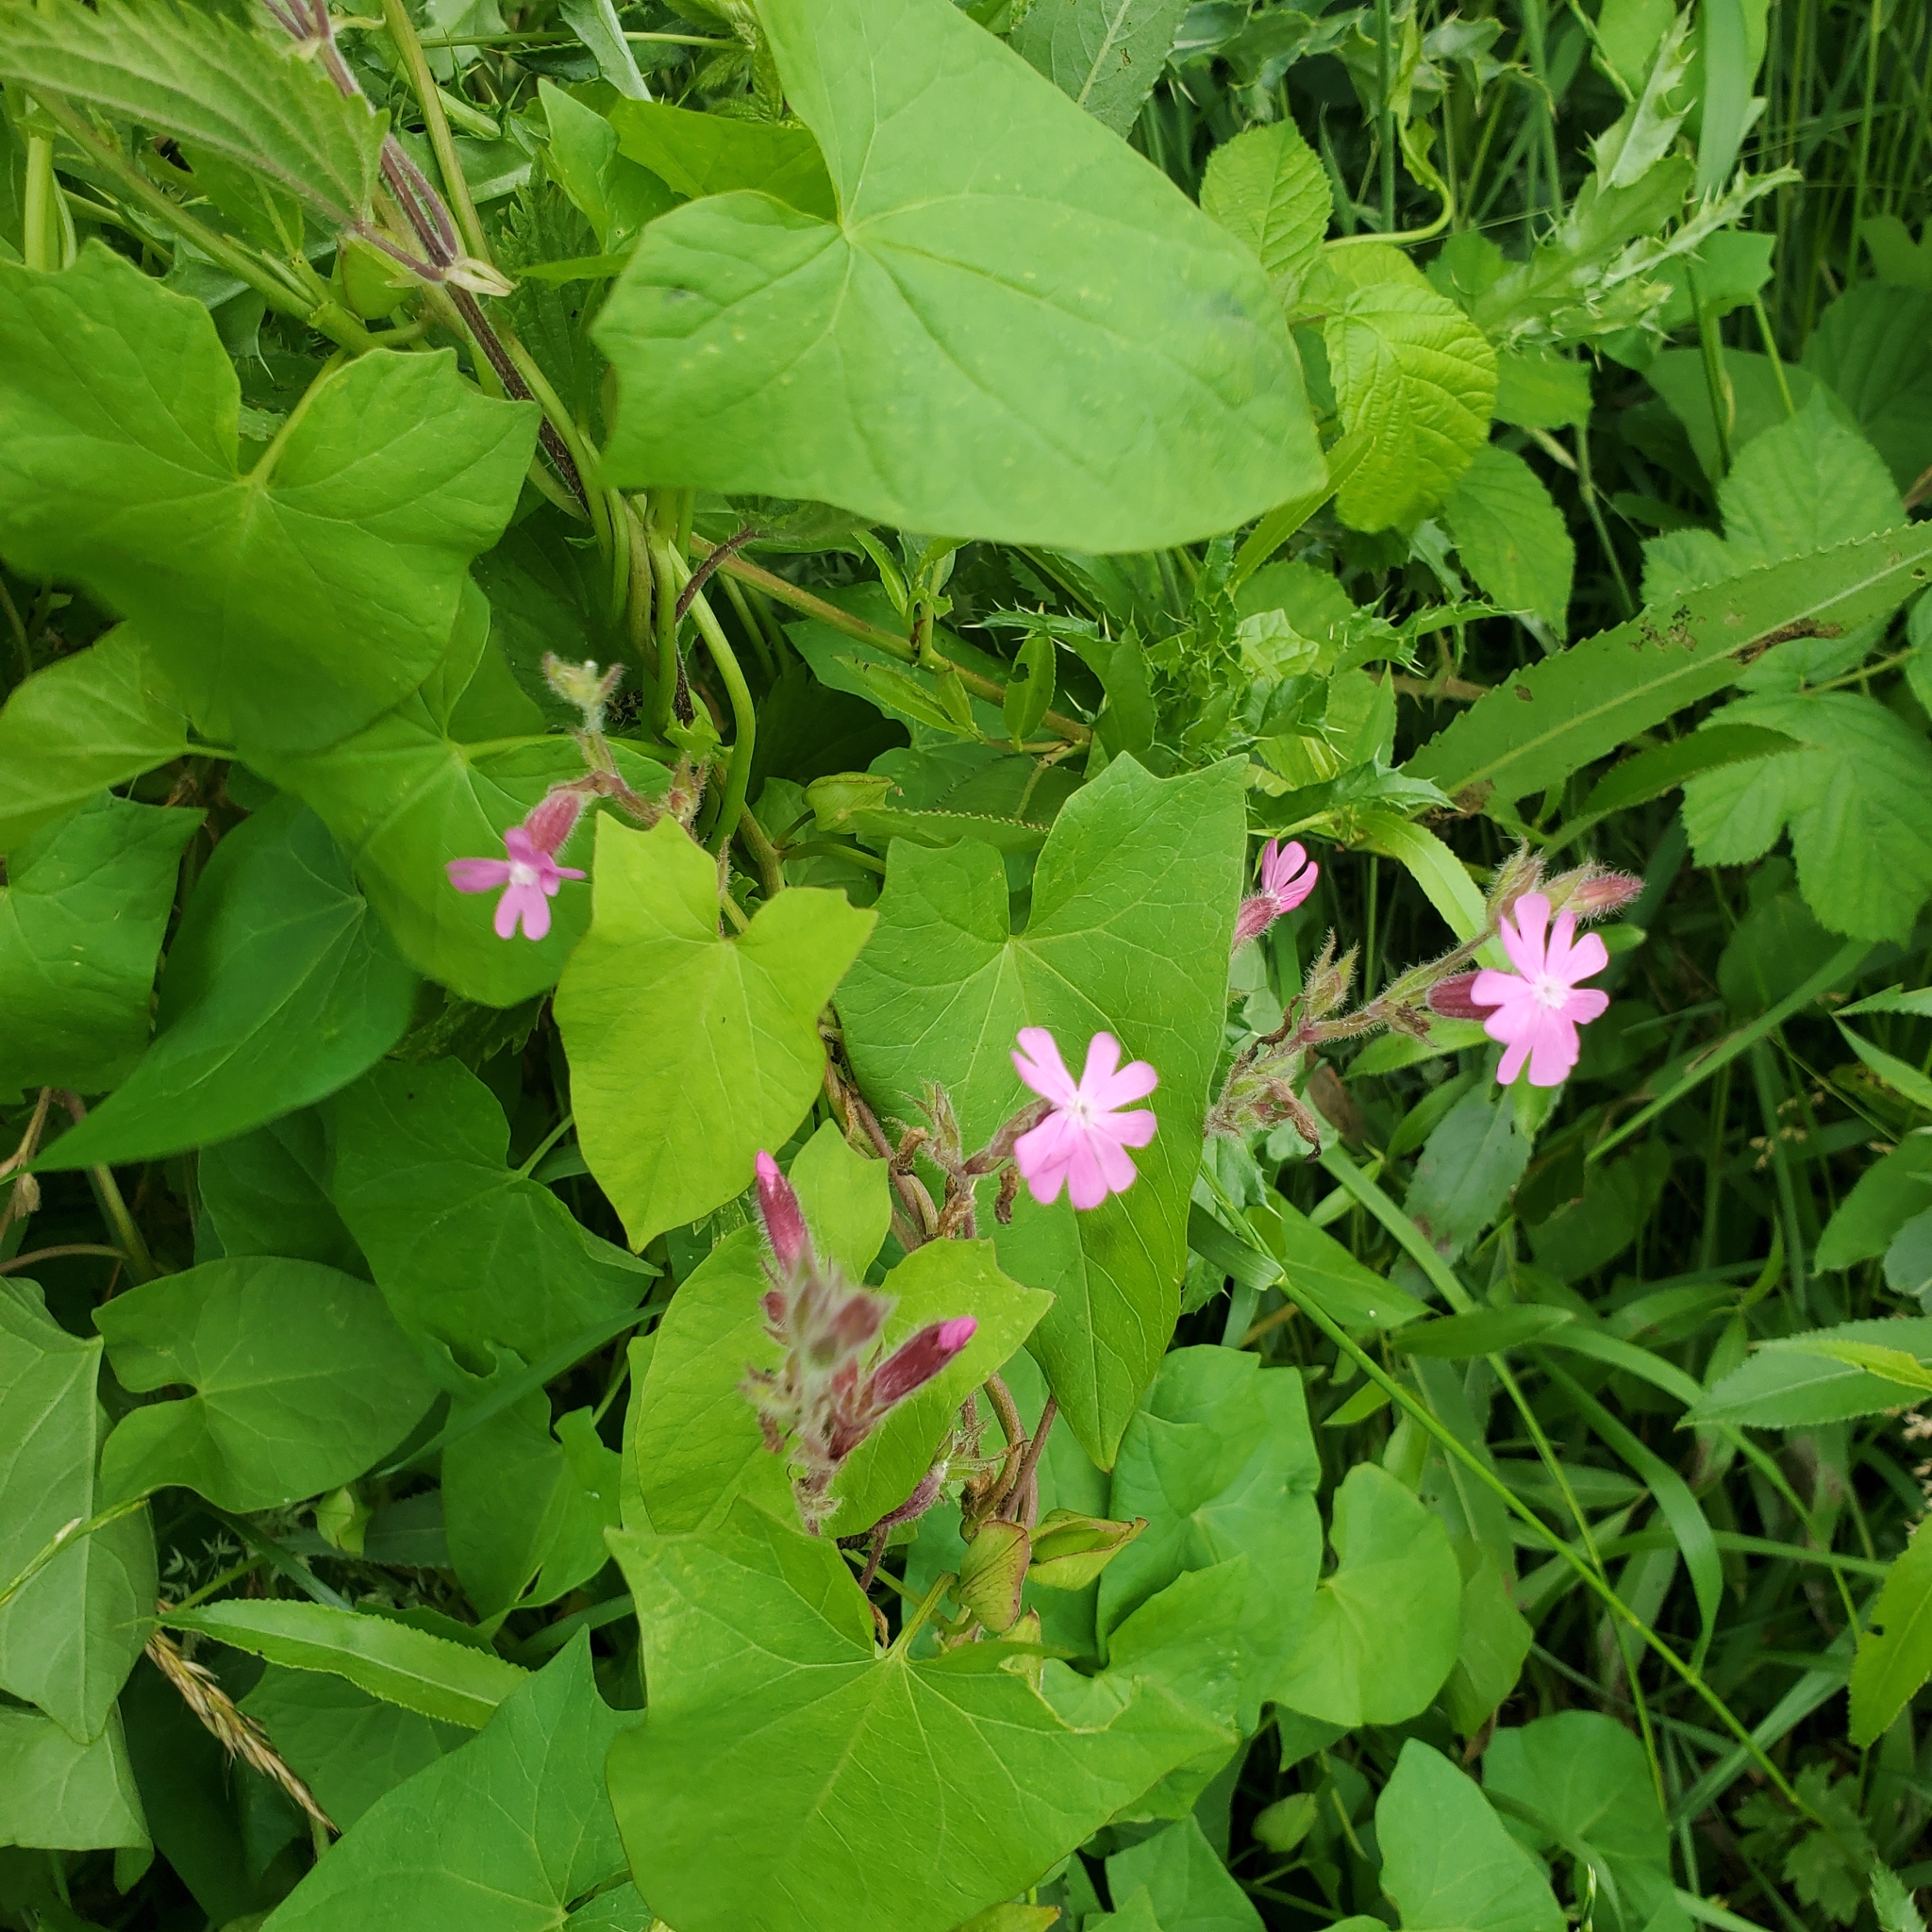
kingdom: Plantae
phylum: Tracheophyta
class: Magnoliopsida
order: Caryophyllales
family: Caryophyllaceae
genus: Silene
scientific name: Silene dioica
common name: Red campion
